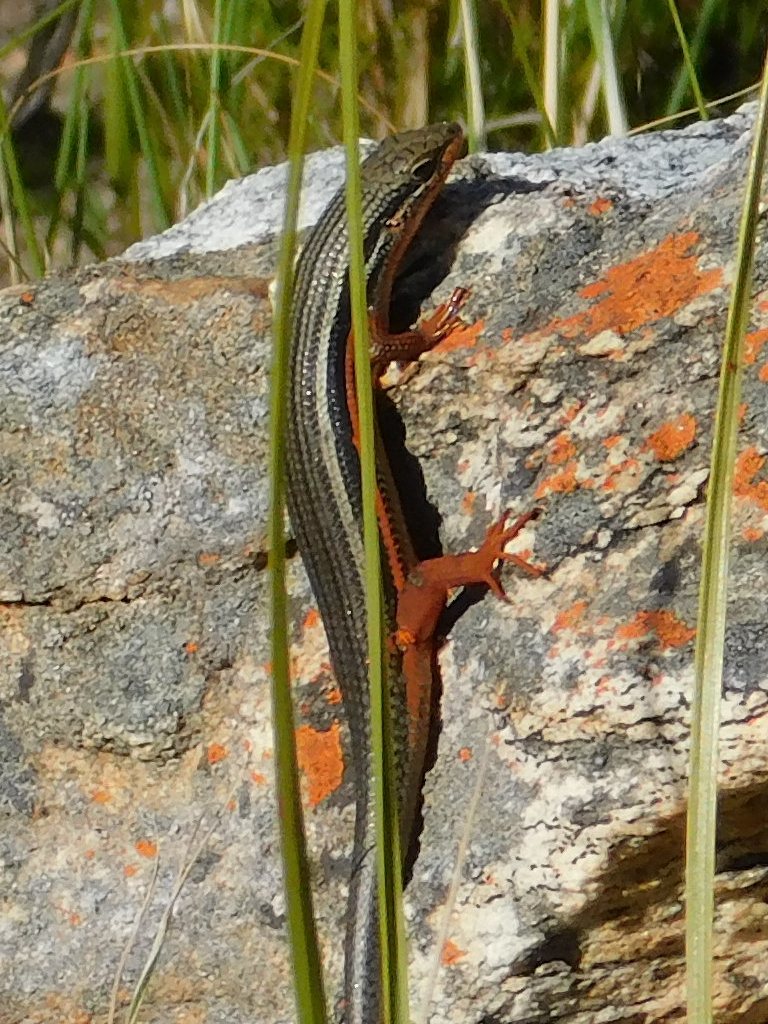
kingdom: Animalia
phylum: Chordata
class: Squamata
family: Scincidae
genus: Trachylepis
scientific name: Trachylepis homalocephala
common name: Red-sided skink
